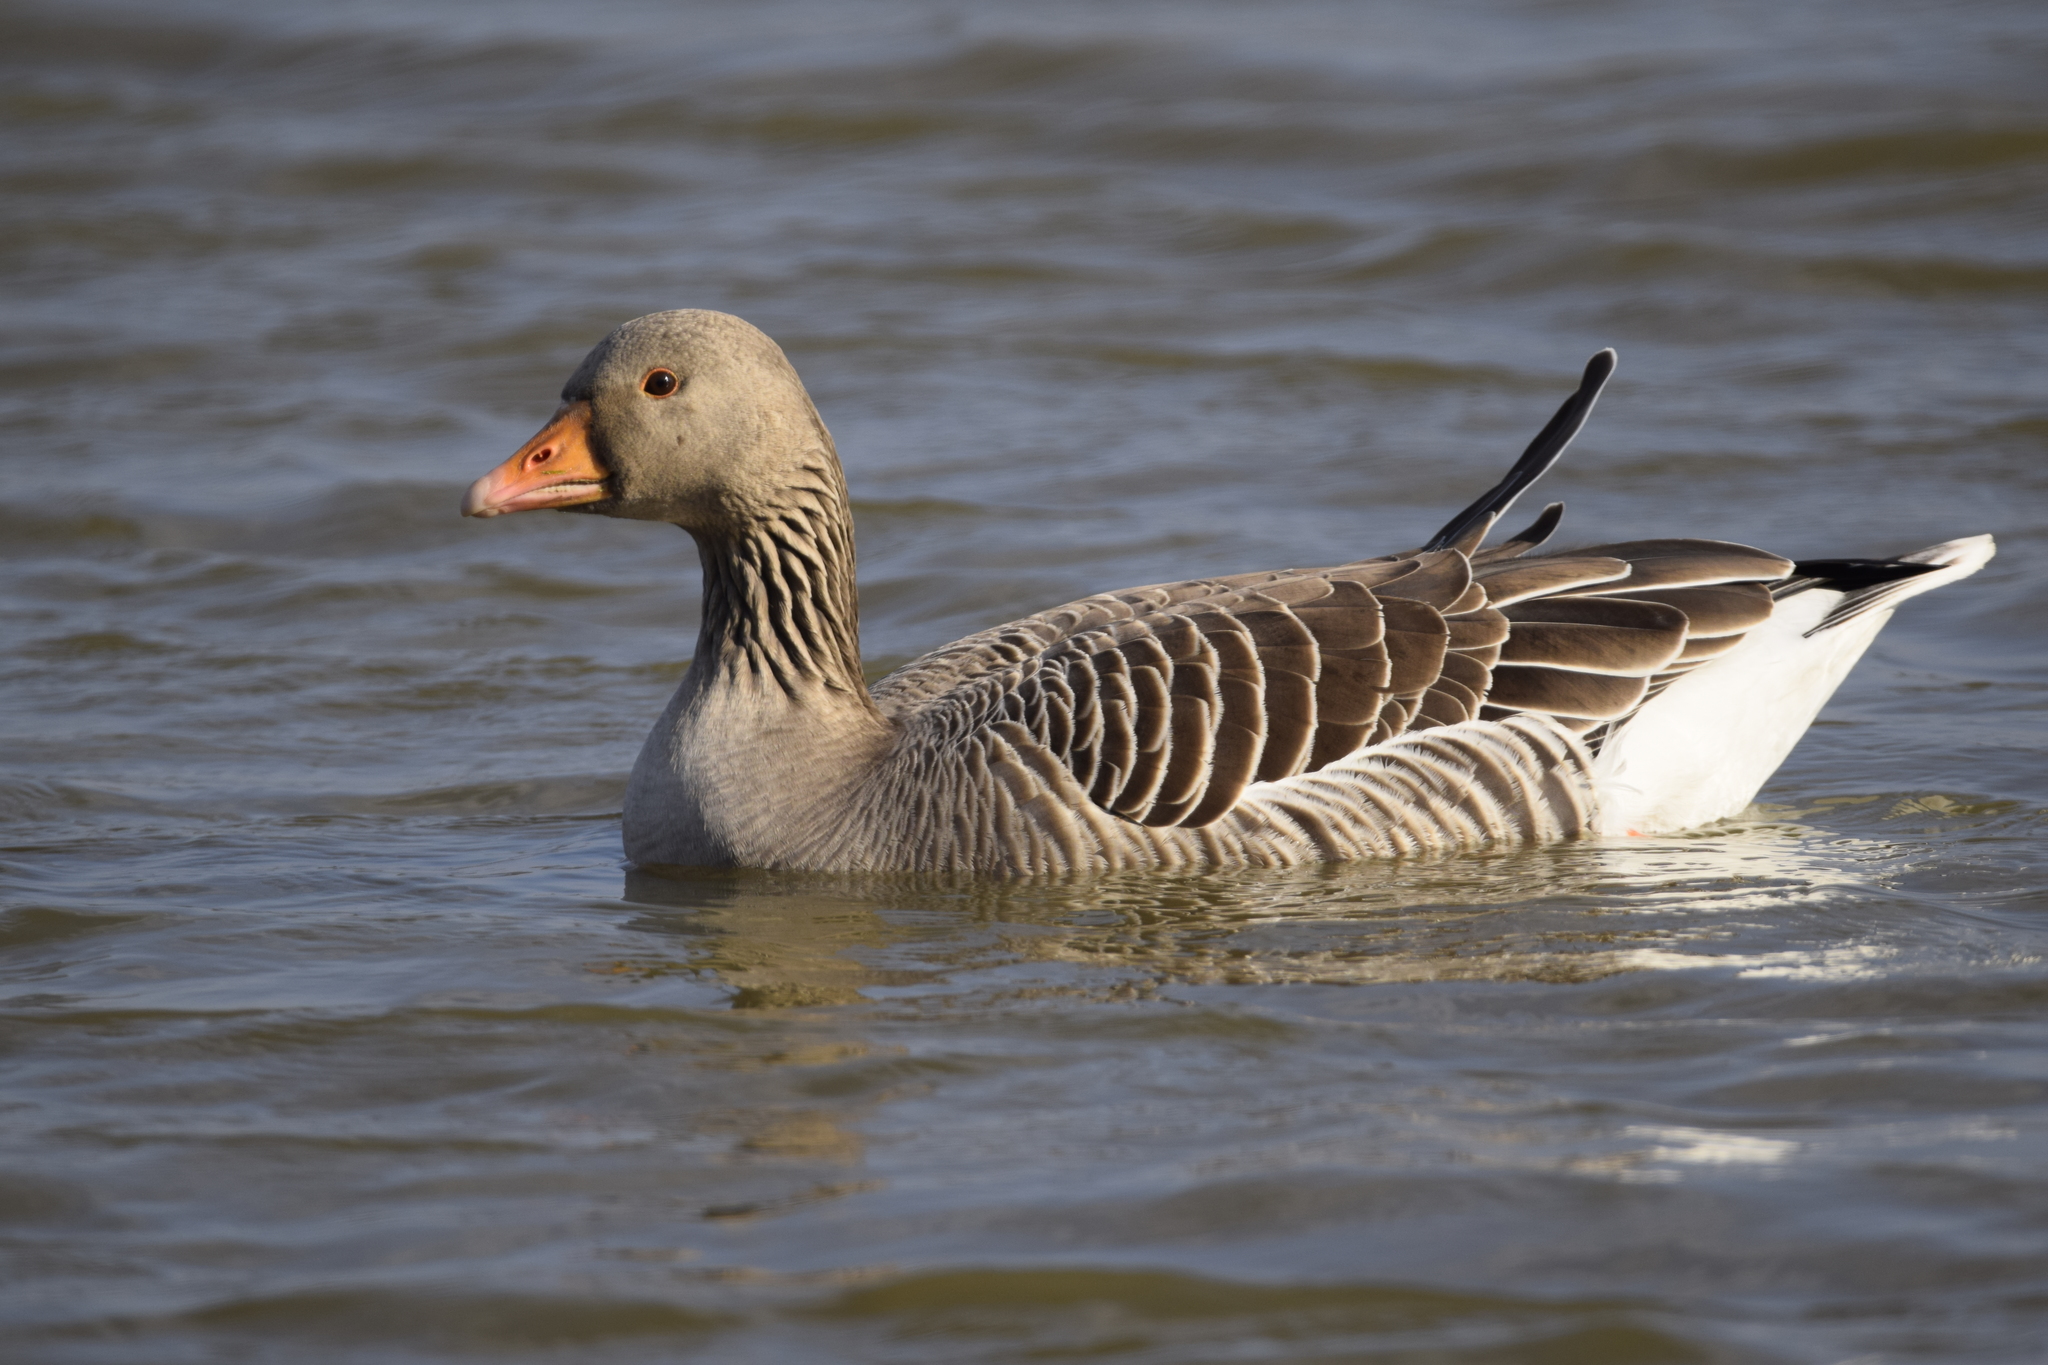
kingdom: Animalia
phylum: Chordata
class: Aves
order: Anseriformes
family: Anatidae
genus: Anser
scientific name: Anser anser
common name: Greylag goose
